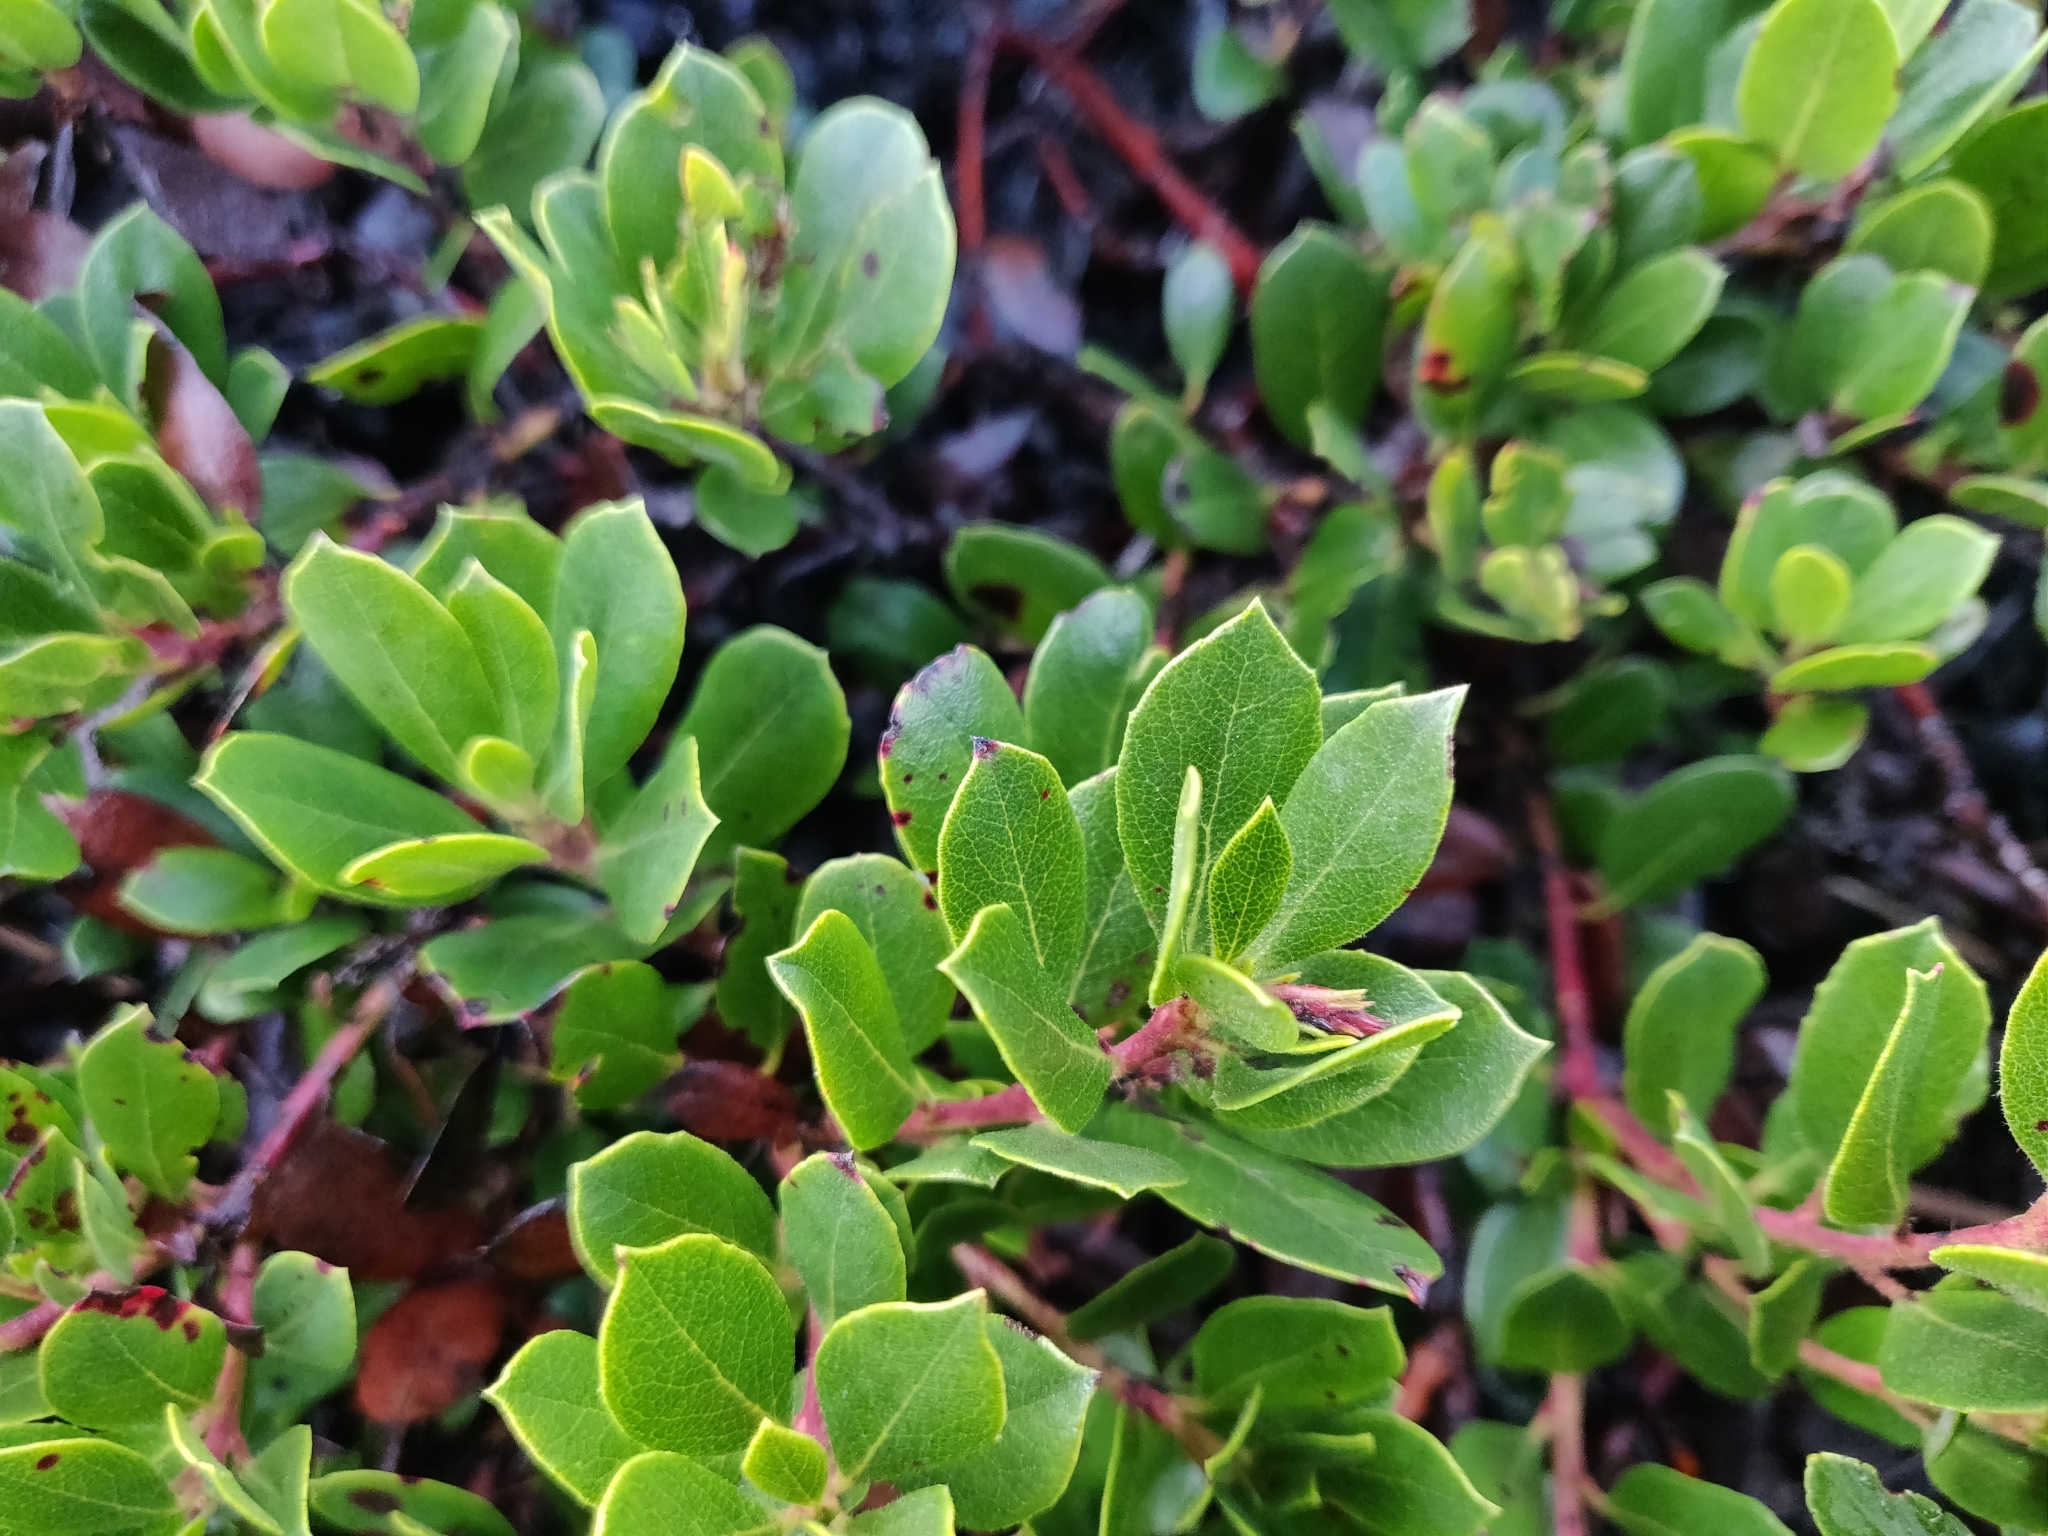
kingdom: Plantae
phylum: Tracheophyta
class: Magnoliopsida
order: Ericales
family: Ericaceae
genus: Arctostaphylos
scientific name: Arctostaphylos pacifica
